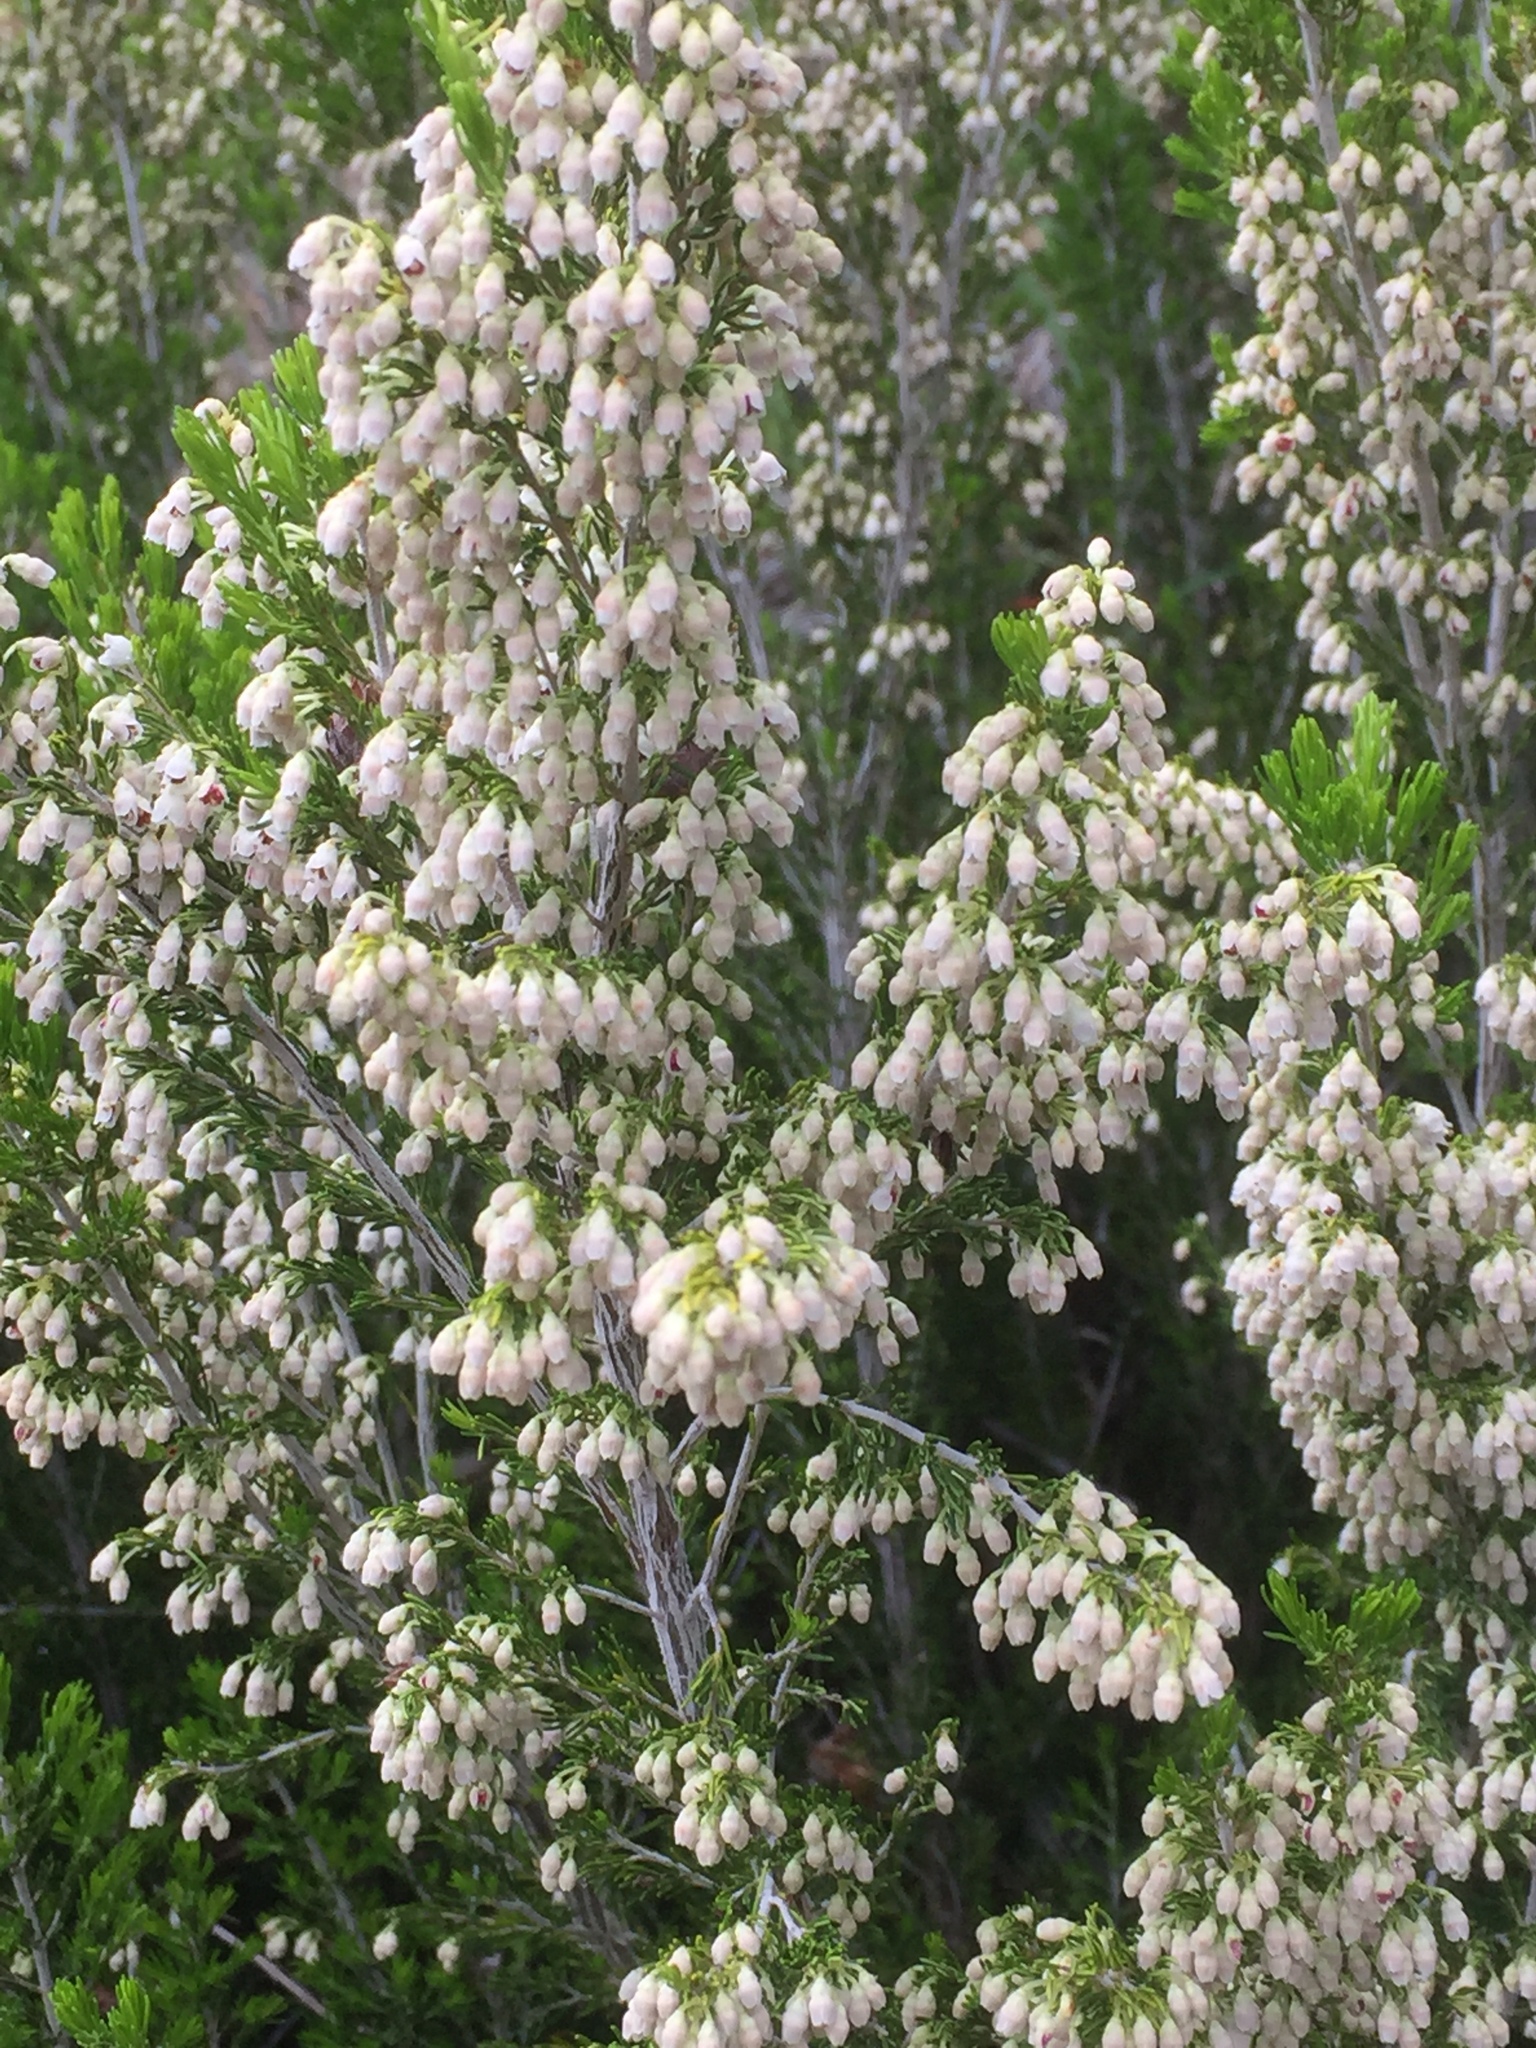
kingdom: Plantae
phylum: Tracheophyta
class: Magnoliopsida
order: Ericales
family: Ericaceae
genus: Erica
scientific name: Erica arborea
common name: Tree heath
